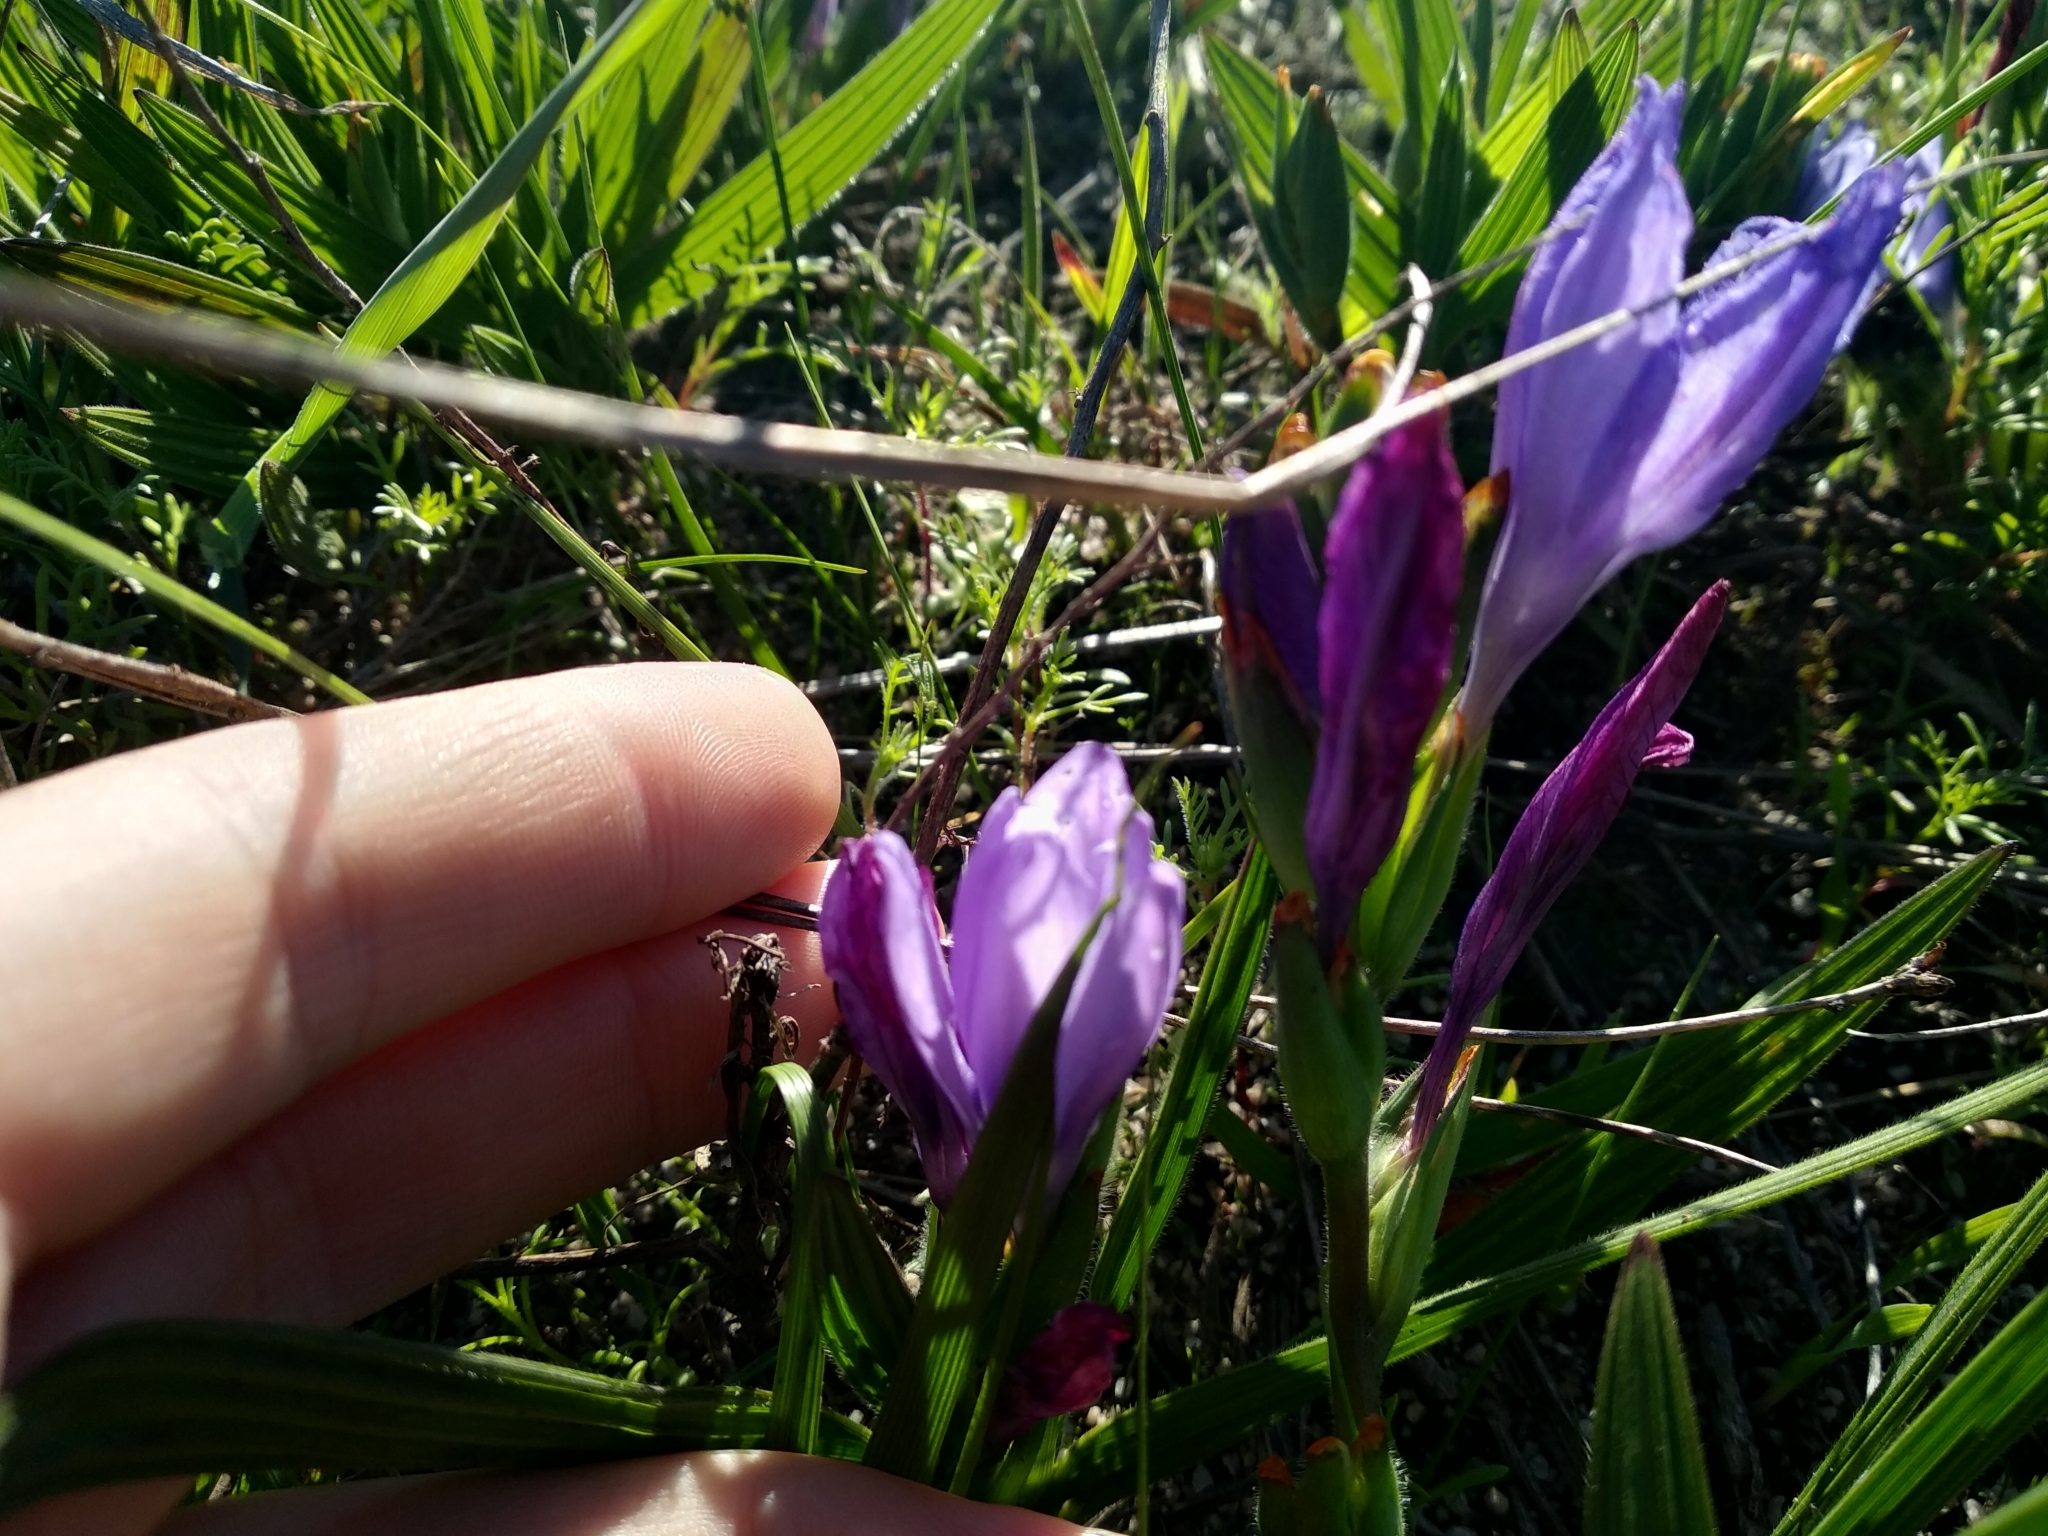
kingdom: Plantae
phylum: Tracheophyta
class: Liliopsida
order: Asparagales
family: Iridaceae
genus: Babiana
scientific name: Babiana villosula
